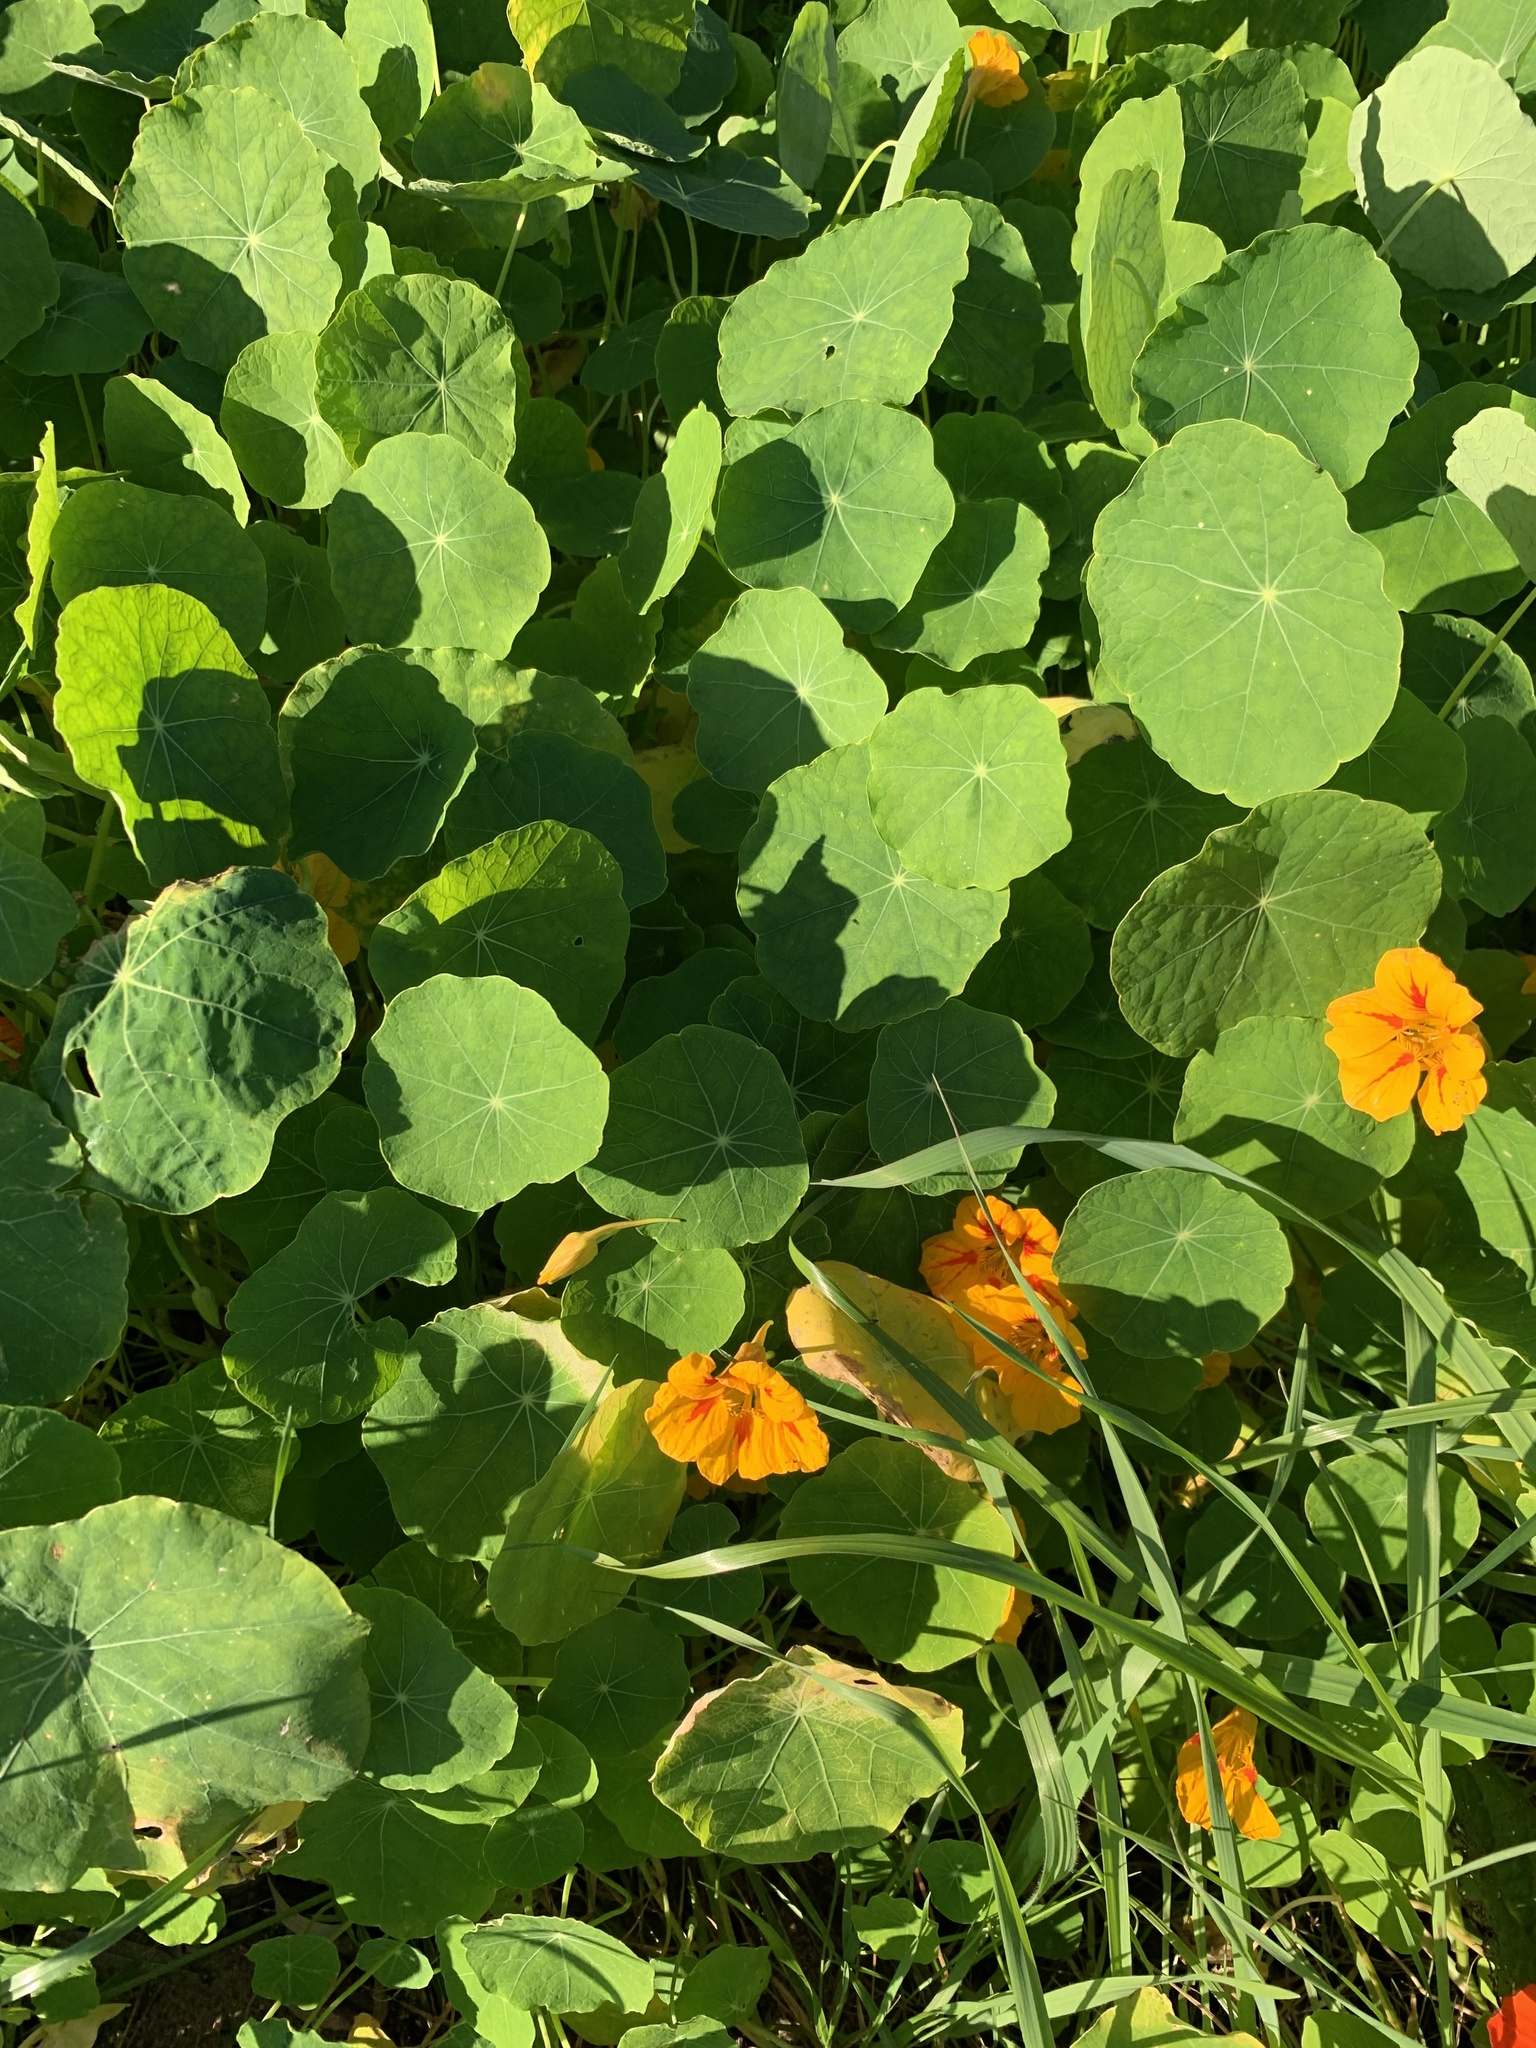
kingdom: Plantae
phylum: Tracheophyta
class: Magnoliopsida
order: Brassicales
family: Tropaeolaceae
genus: Tropaeolum
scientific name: Tropaeolum majus
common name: Nasturtium
